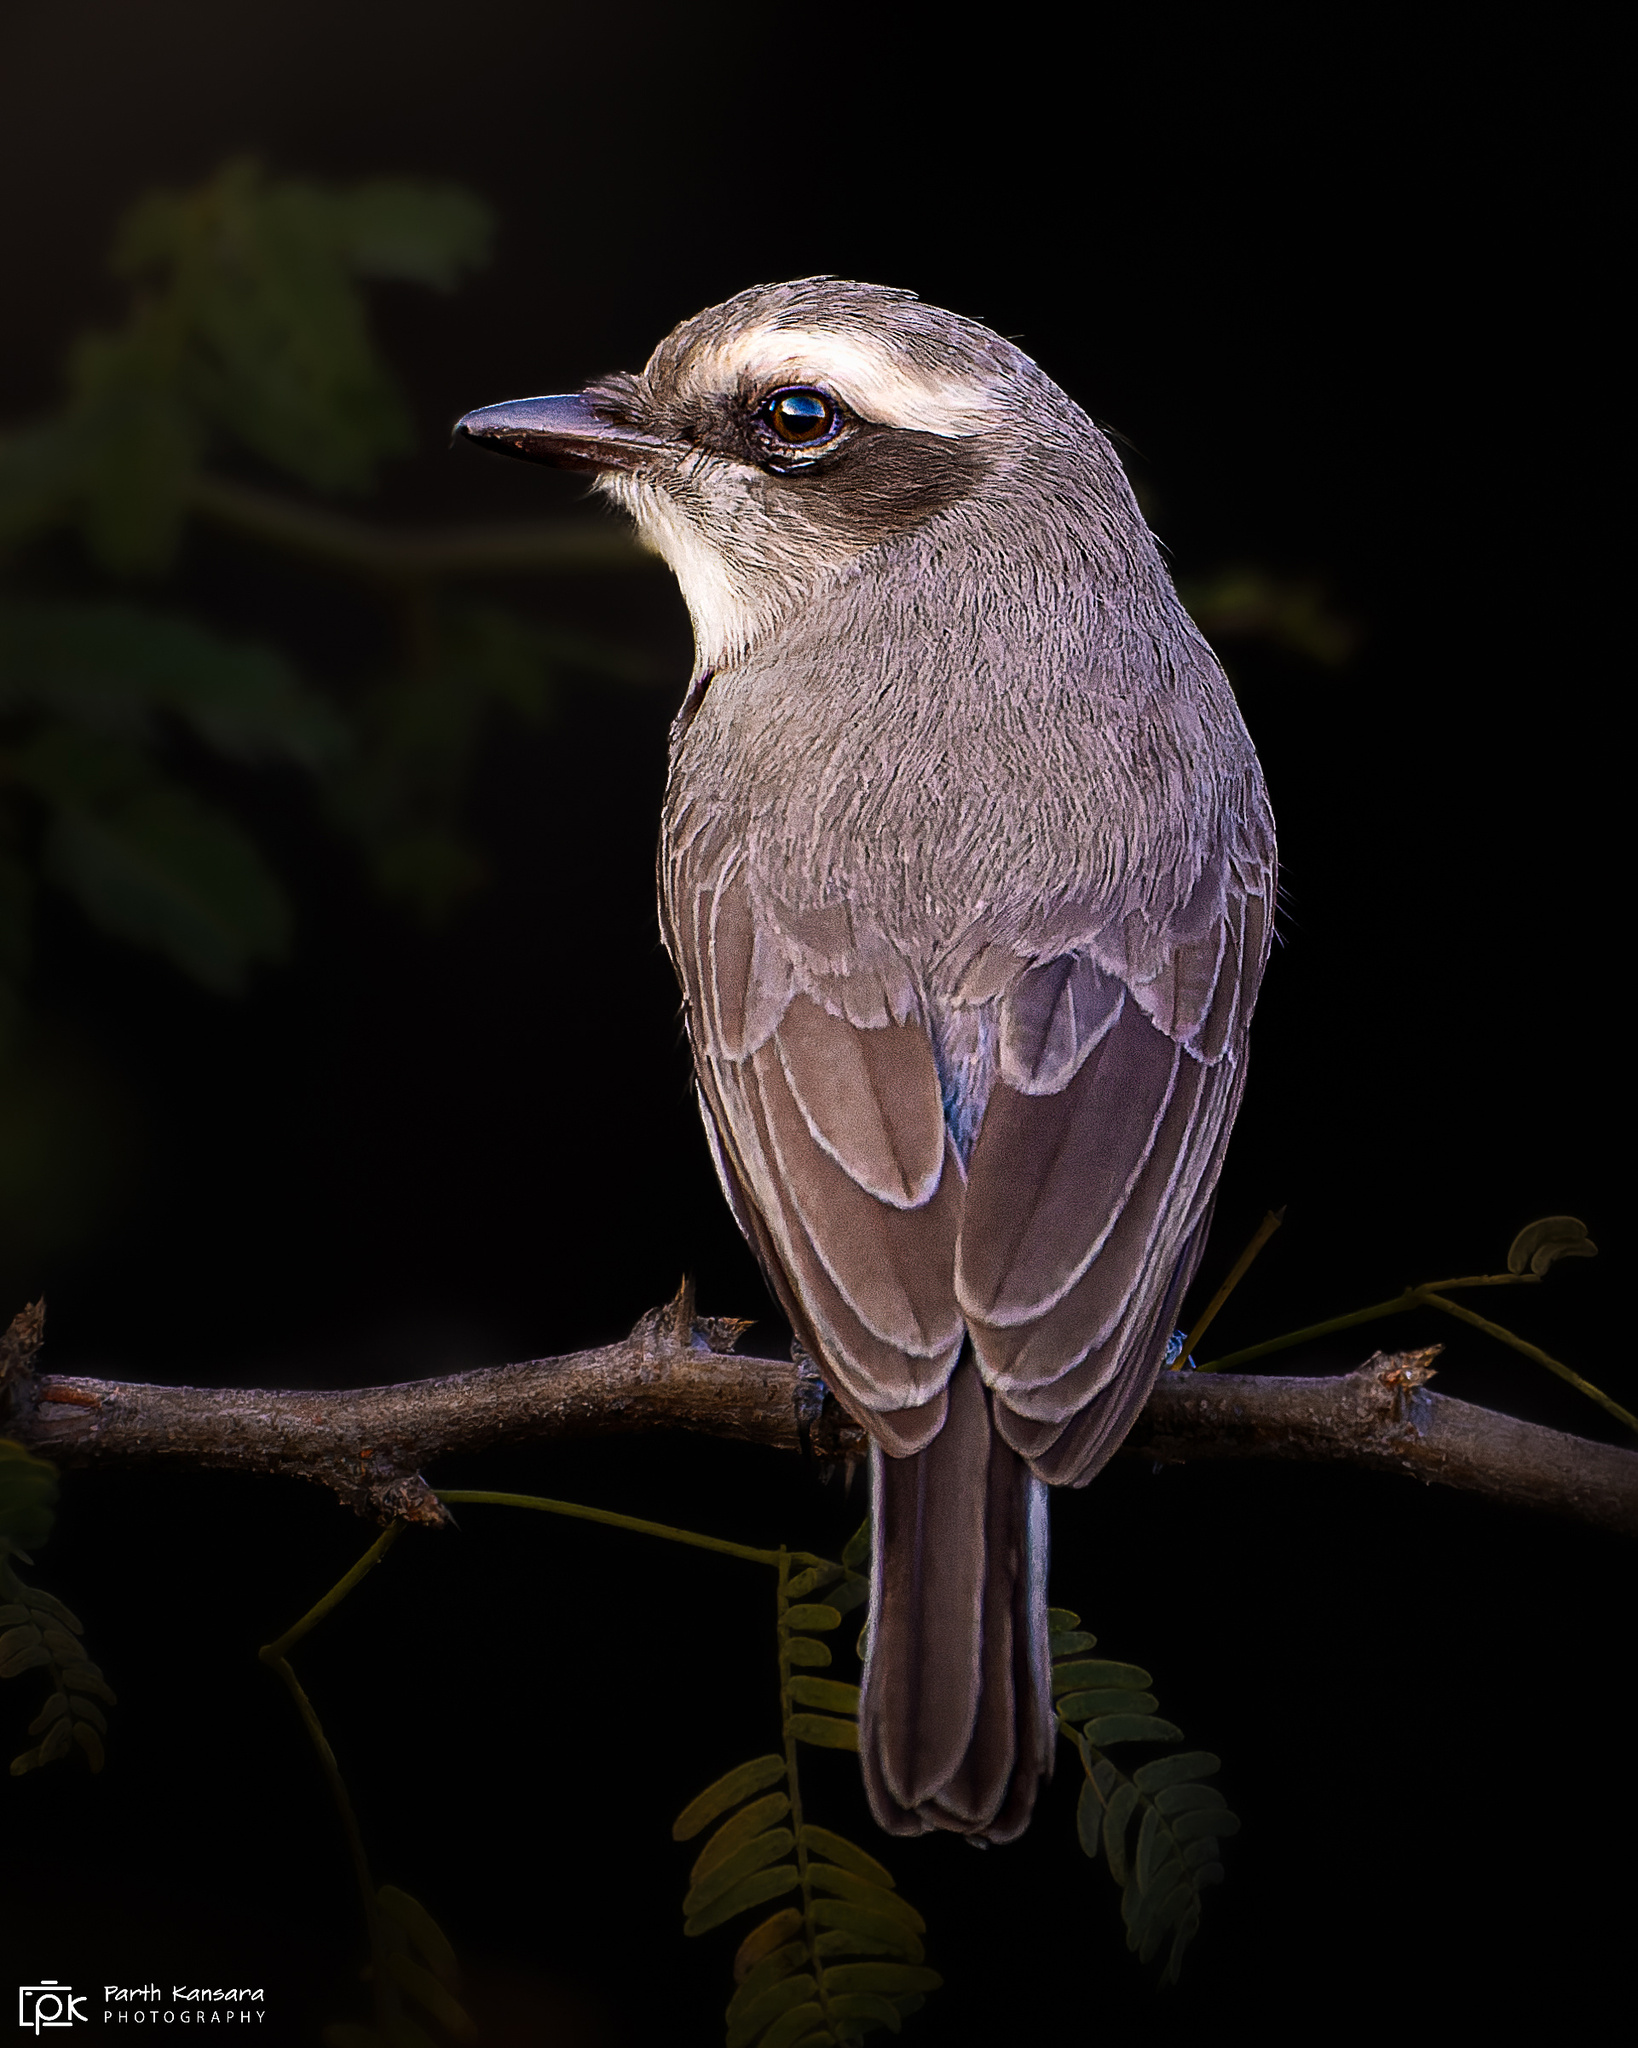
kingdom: Animalia
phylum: Chordata
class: Aves
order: Passeriformes
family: Tephrodornithidae
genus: Tephrodornis
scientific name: Tephrodornis pondicerianus
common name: Common woodshrike
